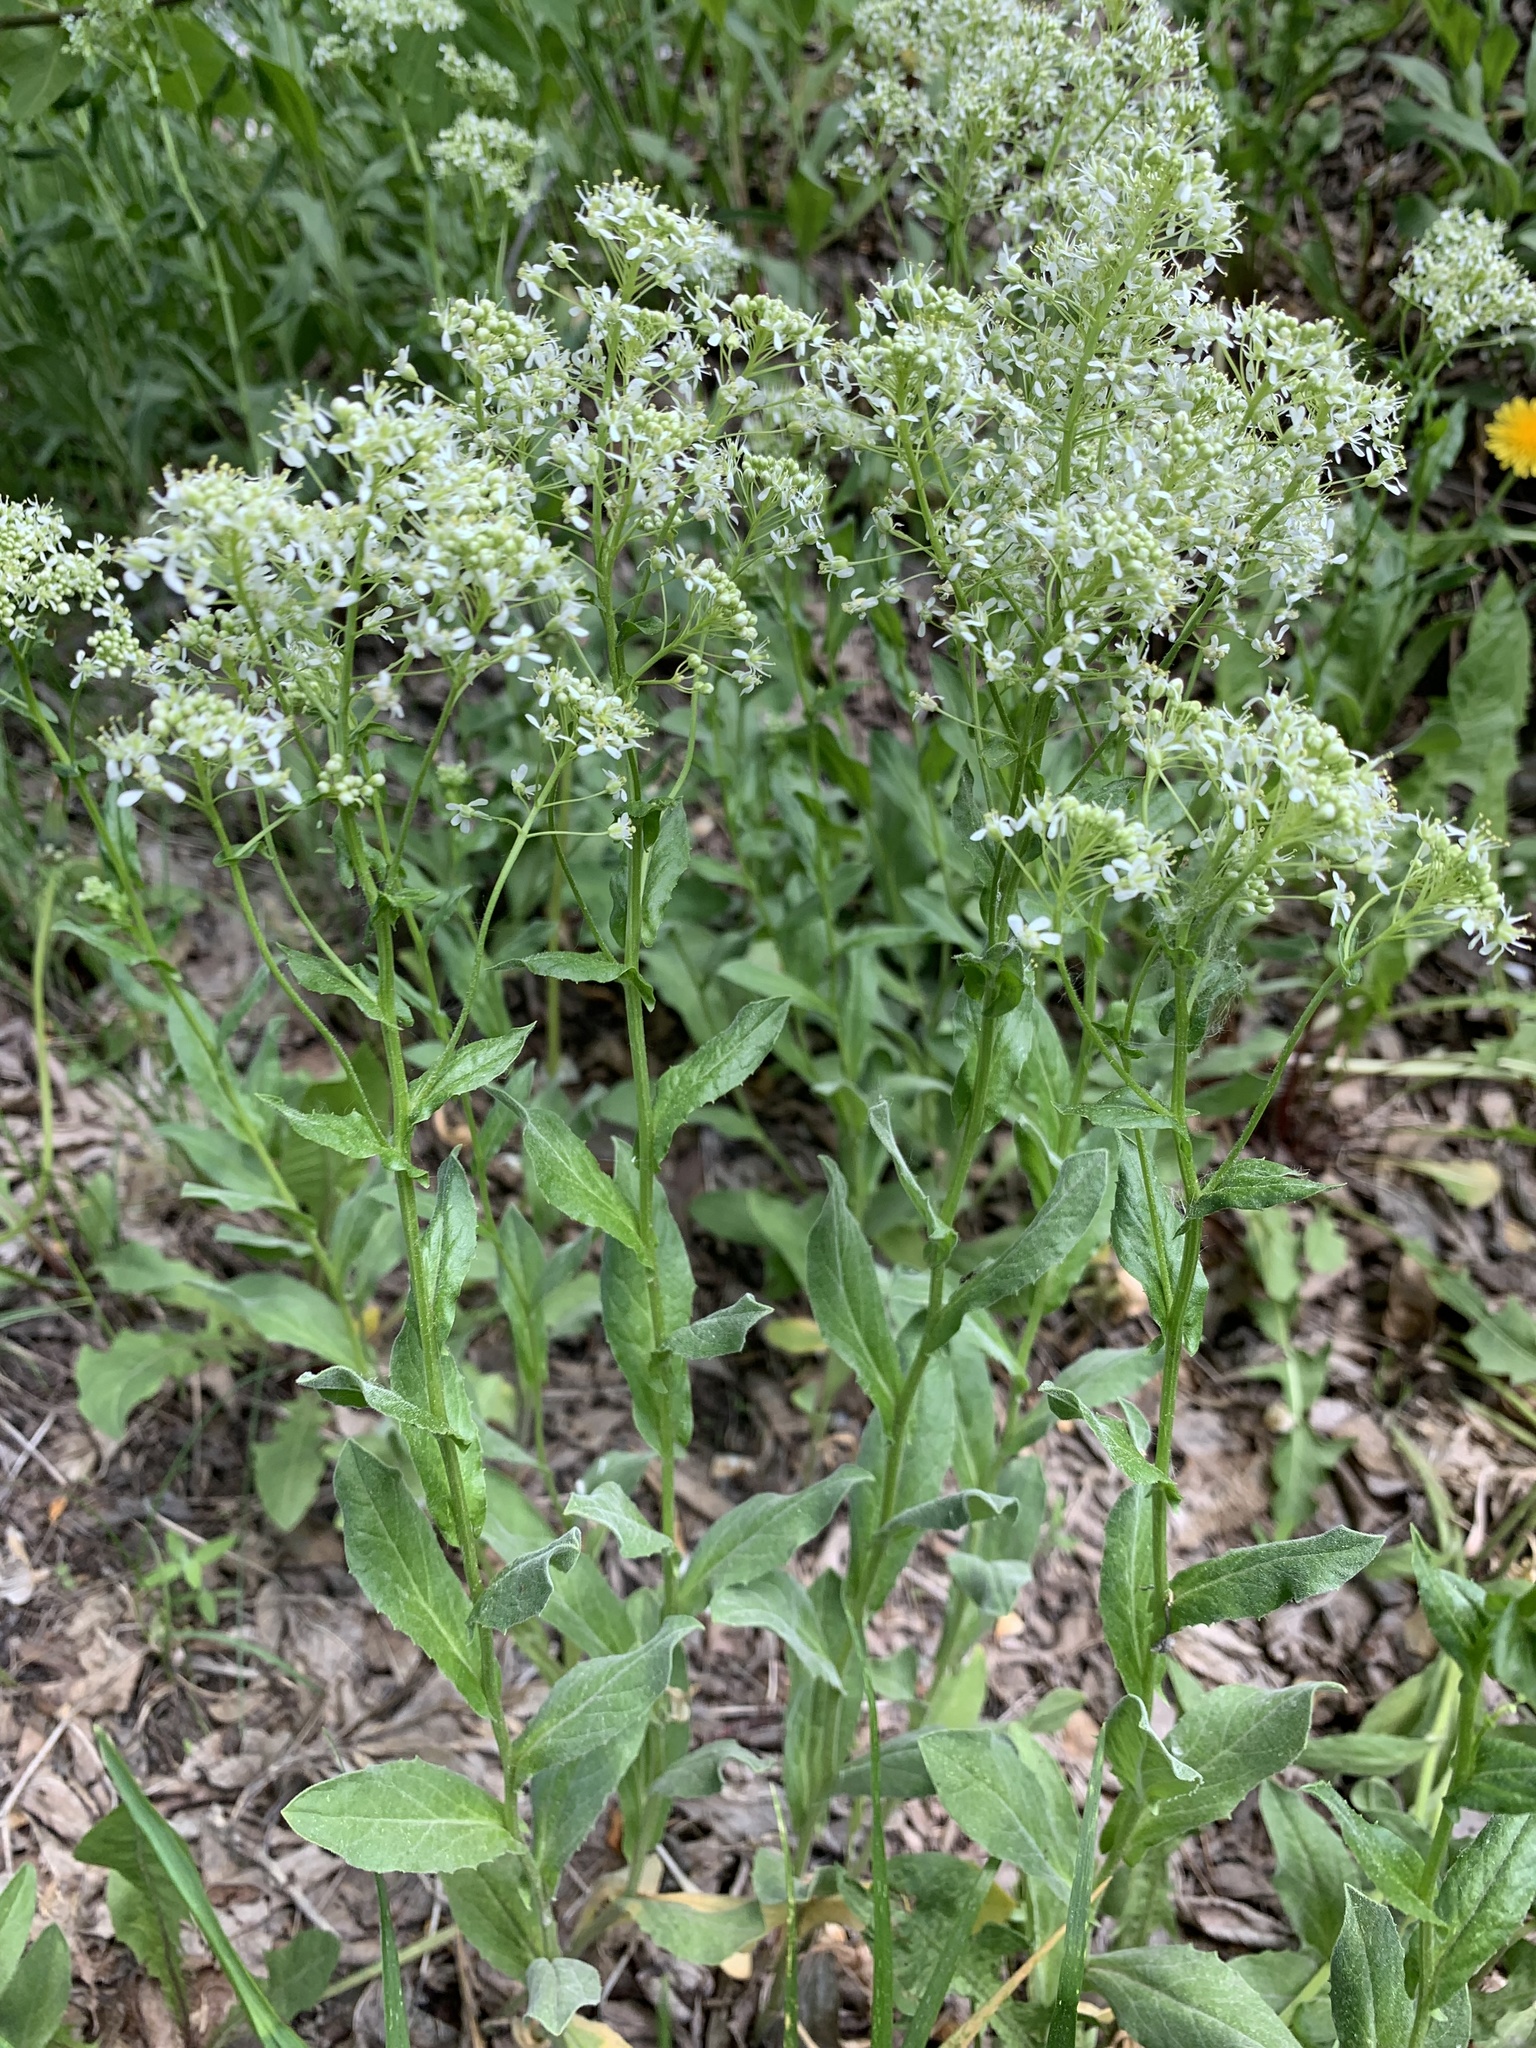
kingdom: Plantae
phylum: Tracheophyta
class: Magnoliopsida
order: Brassicales
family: Brassicaceae
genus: Lepidium
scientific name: Lepidium draba
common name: Hoary cress
